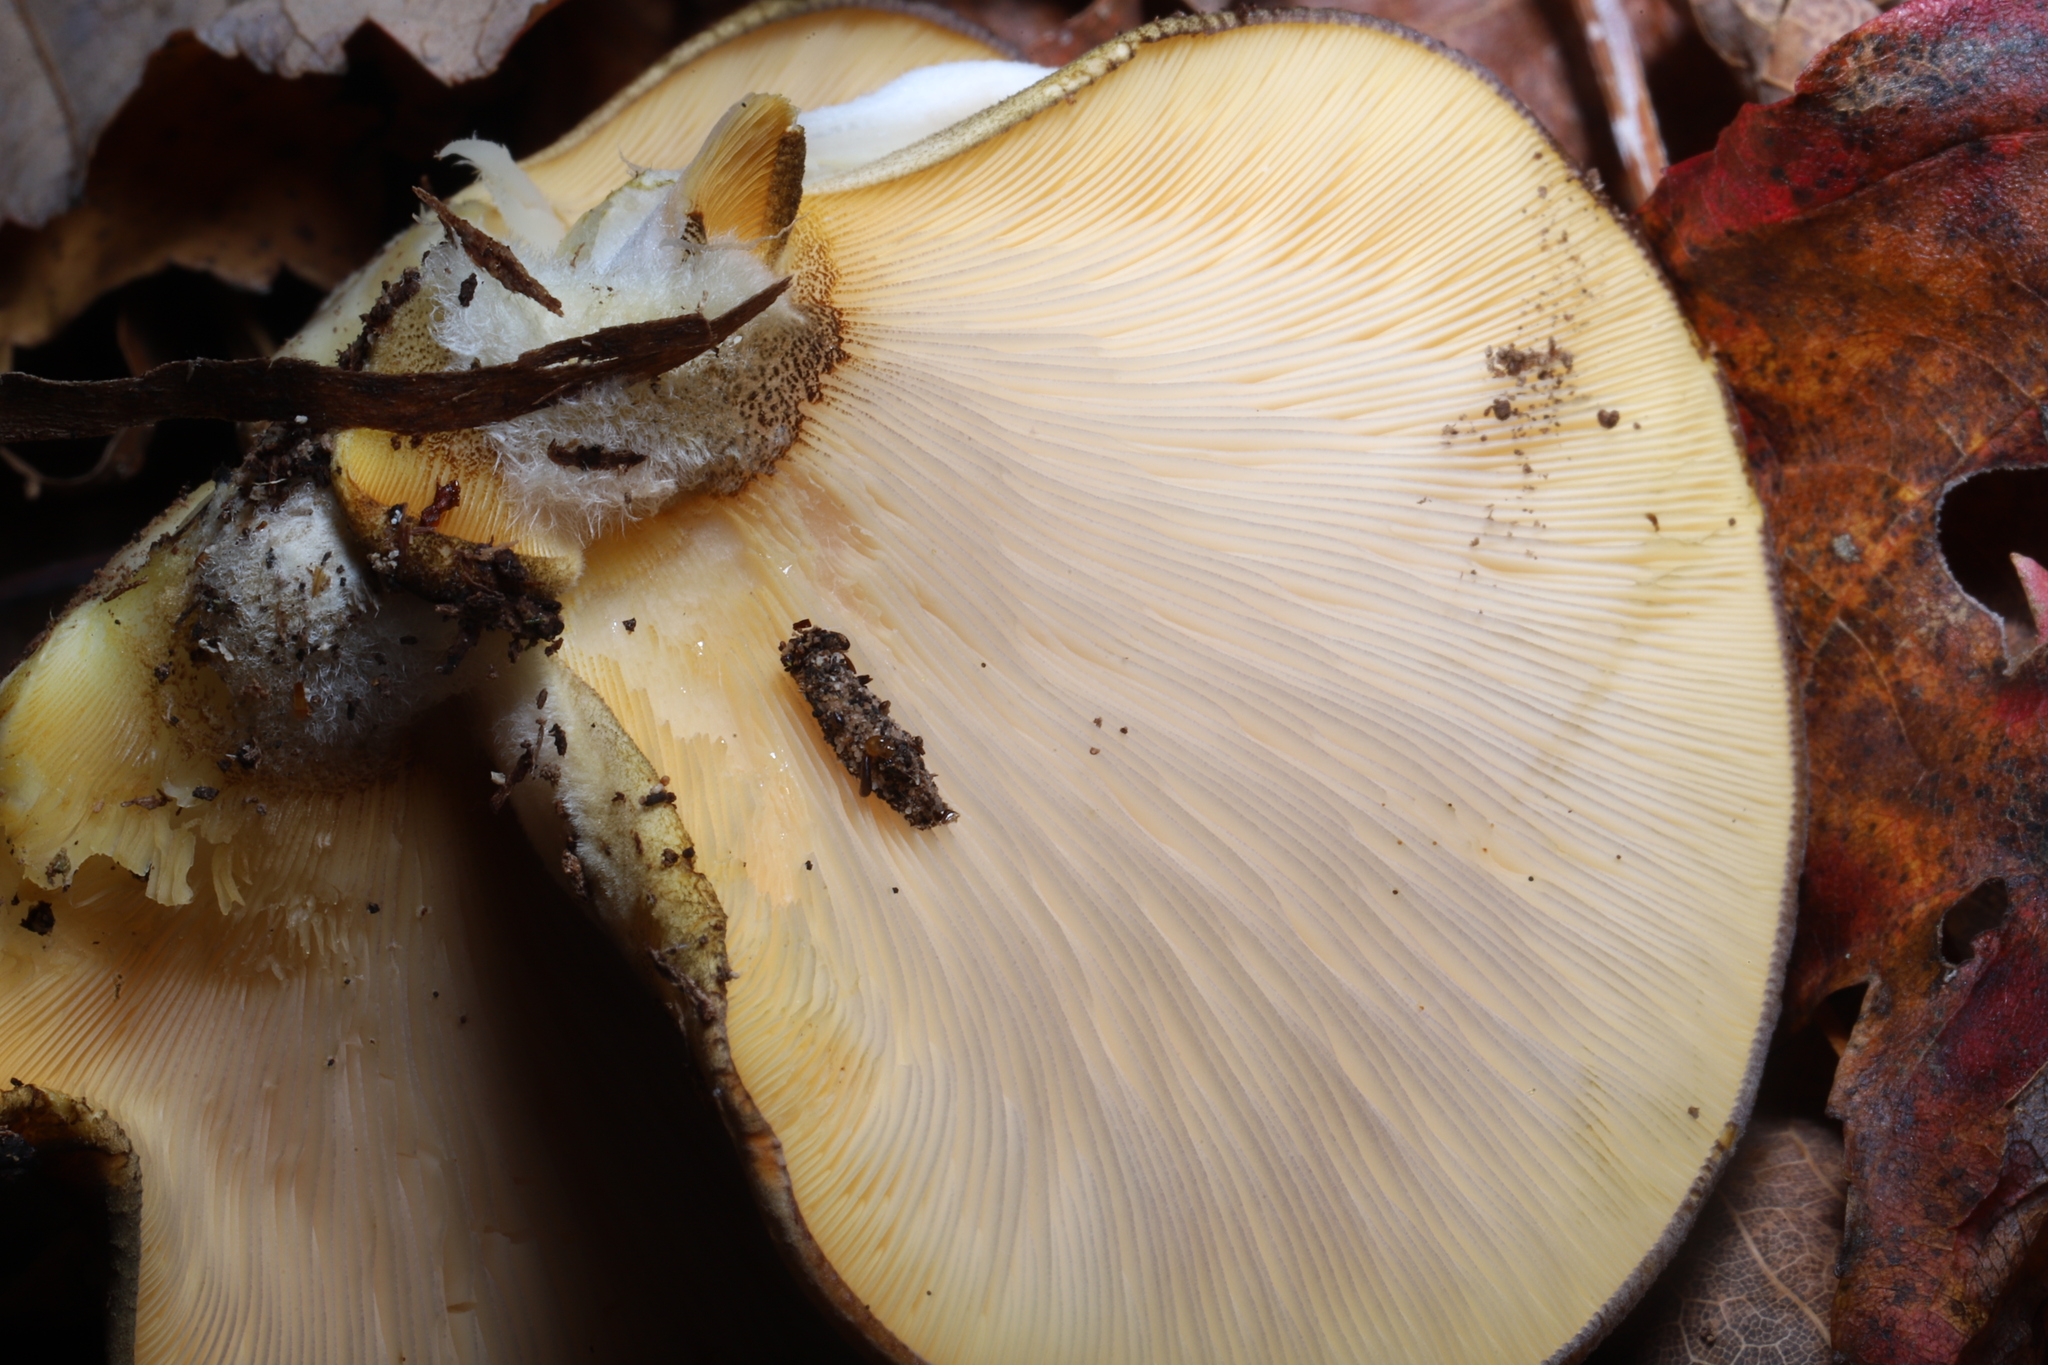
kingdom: Fungi
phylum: Basidiomycota
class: Agaricomycetes
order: Agaricales
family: Sarcomyxaceae
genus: Sarcomyxa
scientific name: Sarcomyxa serotina
